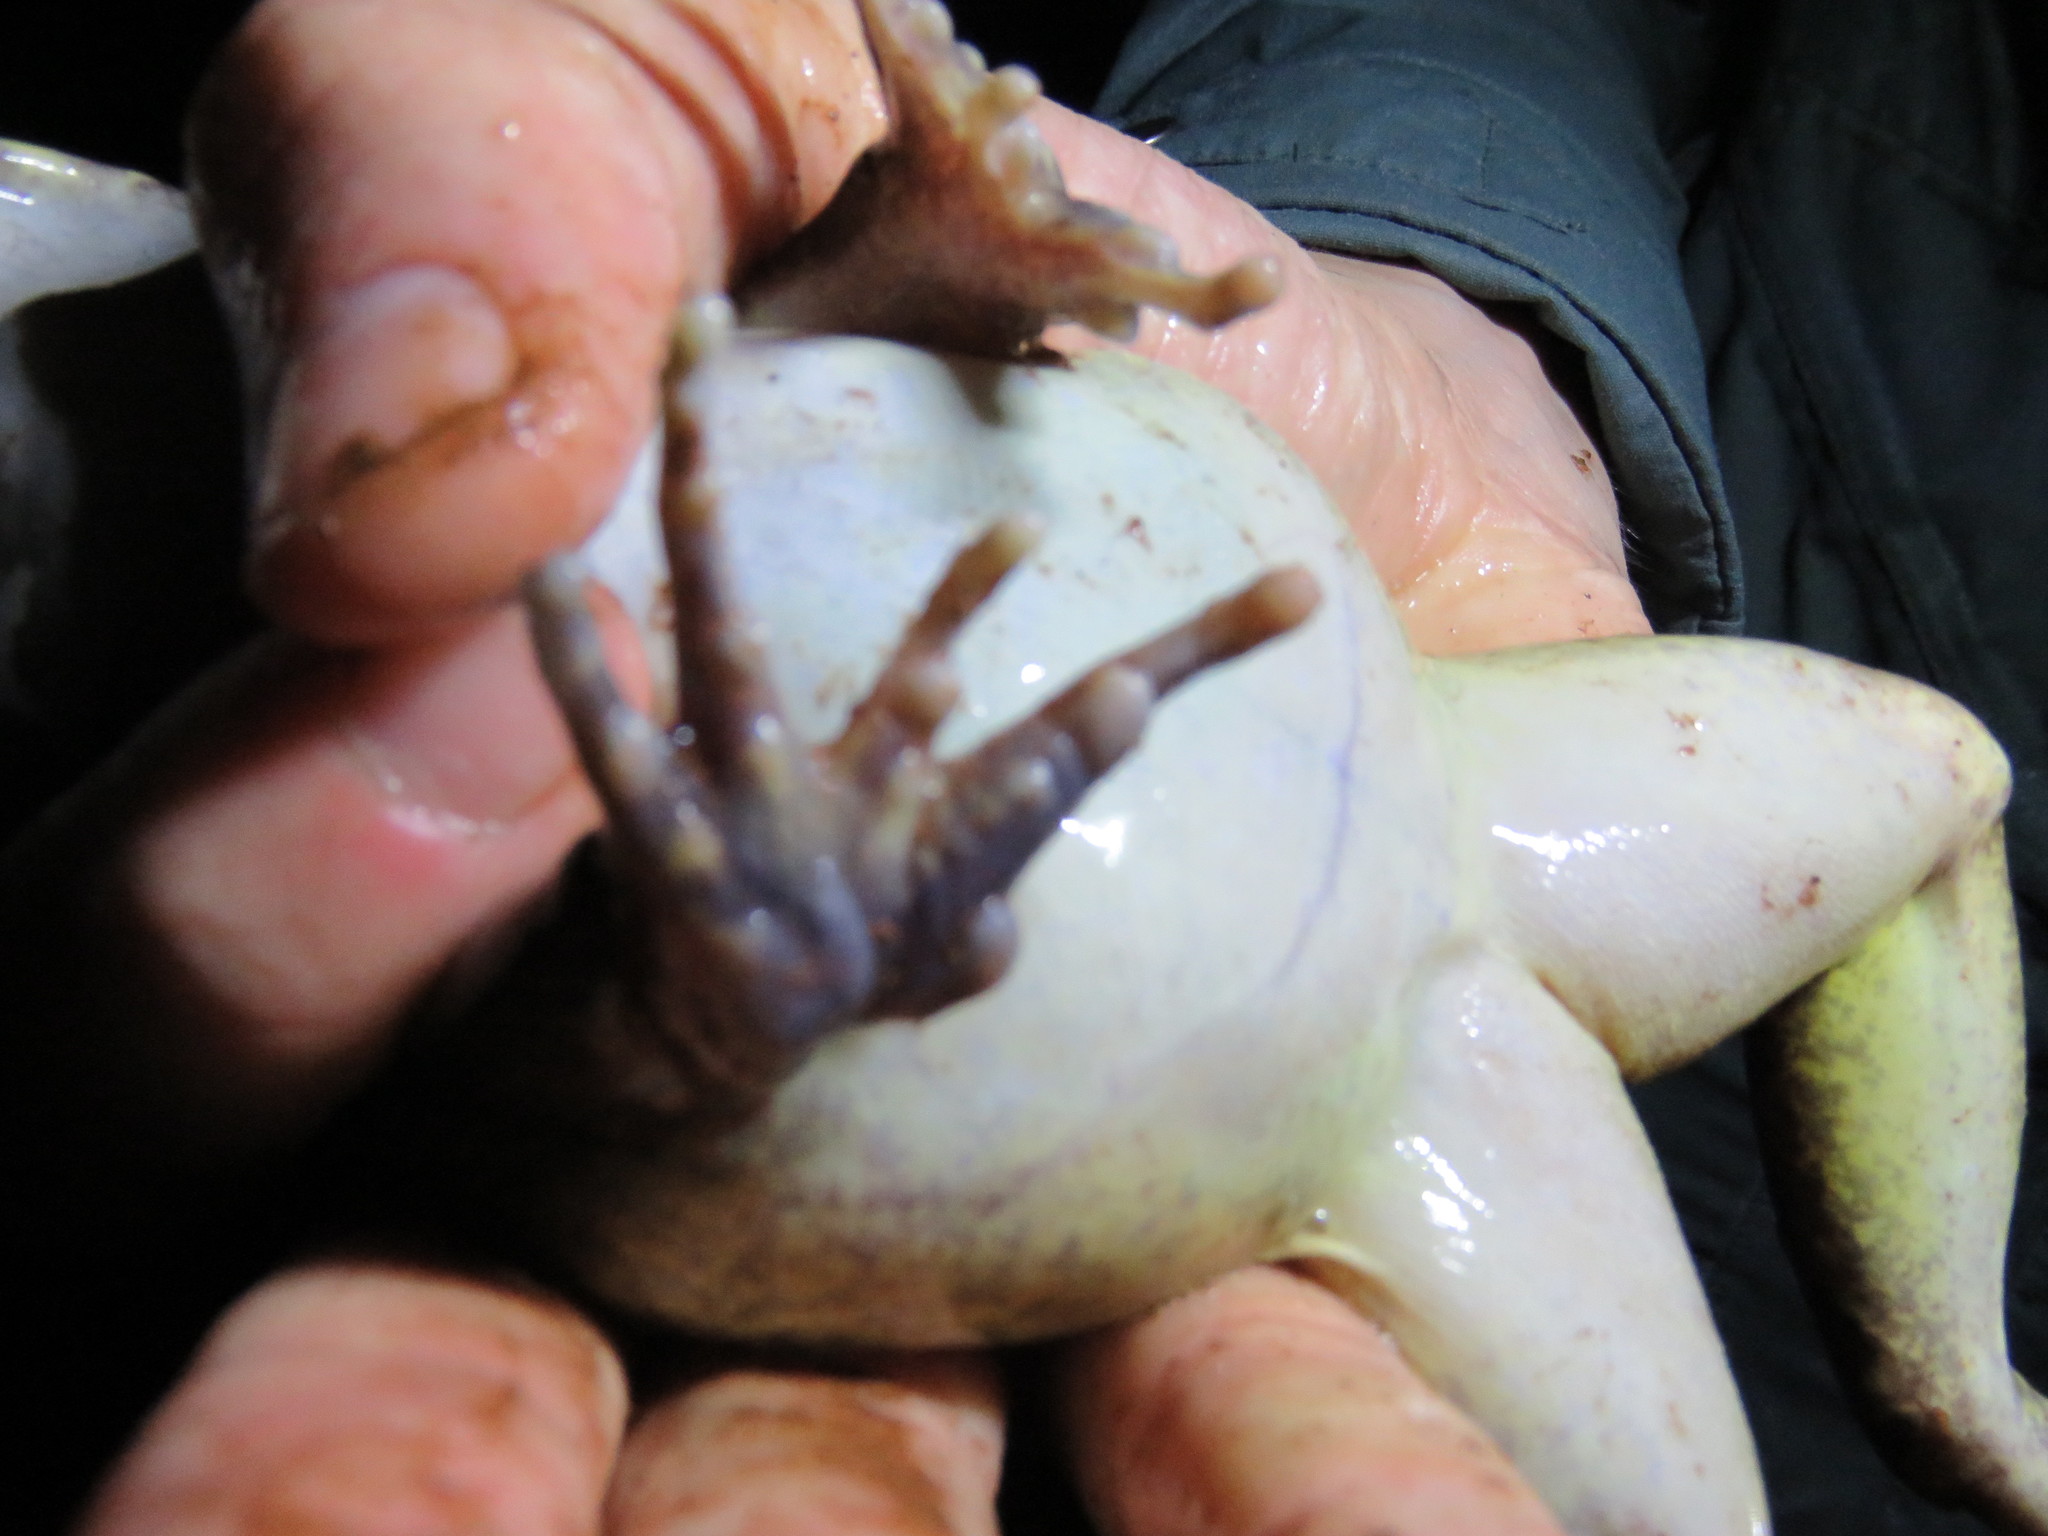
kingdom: Animalia
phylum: Chordata
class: Amphibia
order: Anura
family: Leptodactylidae
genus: Leptodactylus
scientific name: Leptodactylus knudseni
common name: Knudsen's frog
